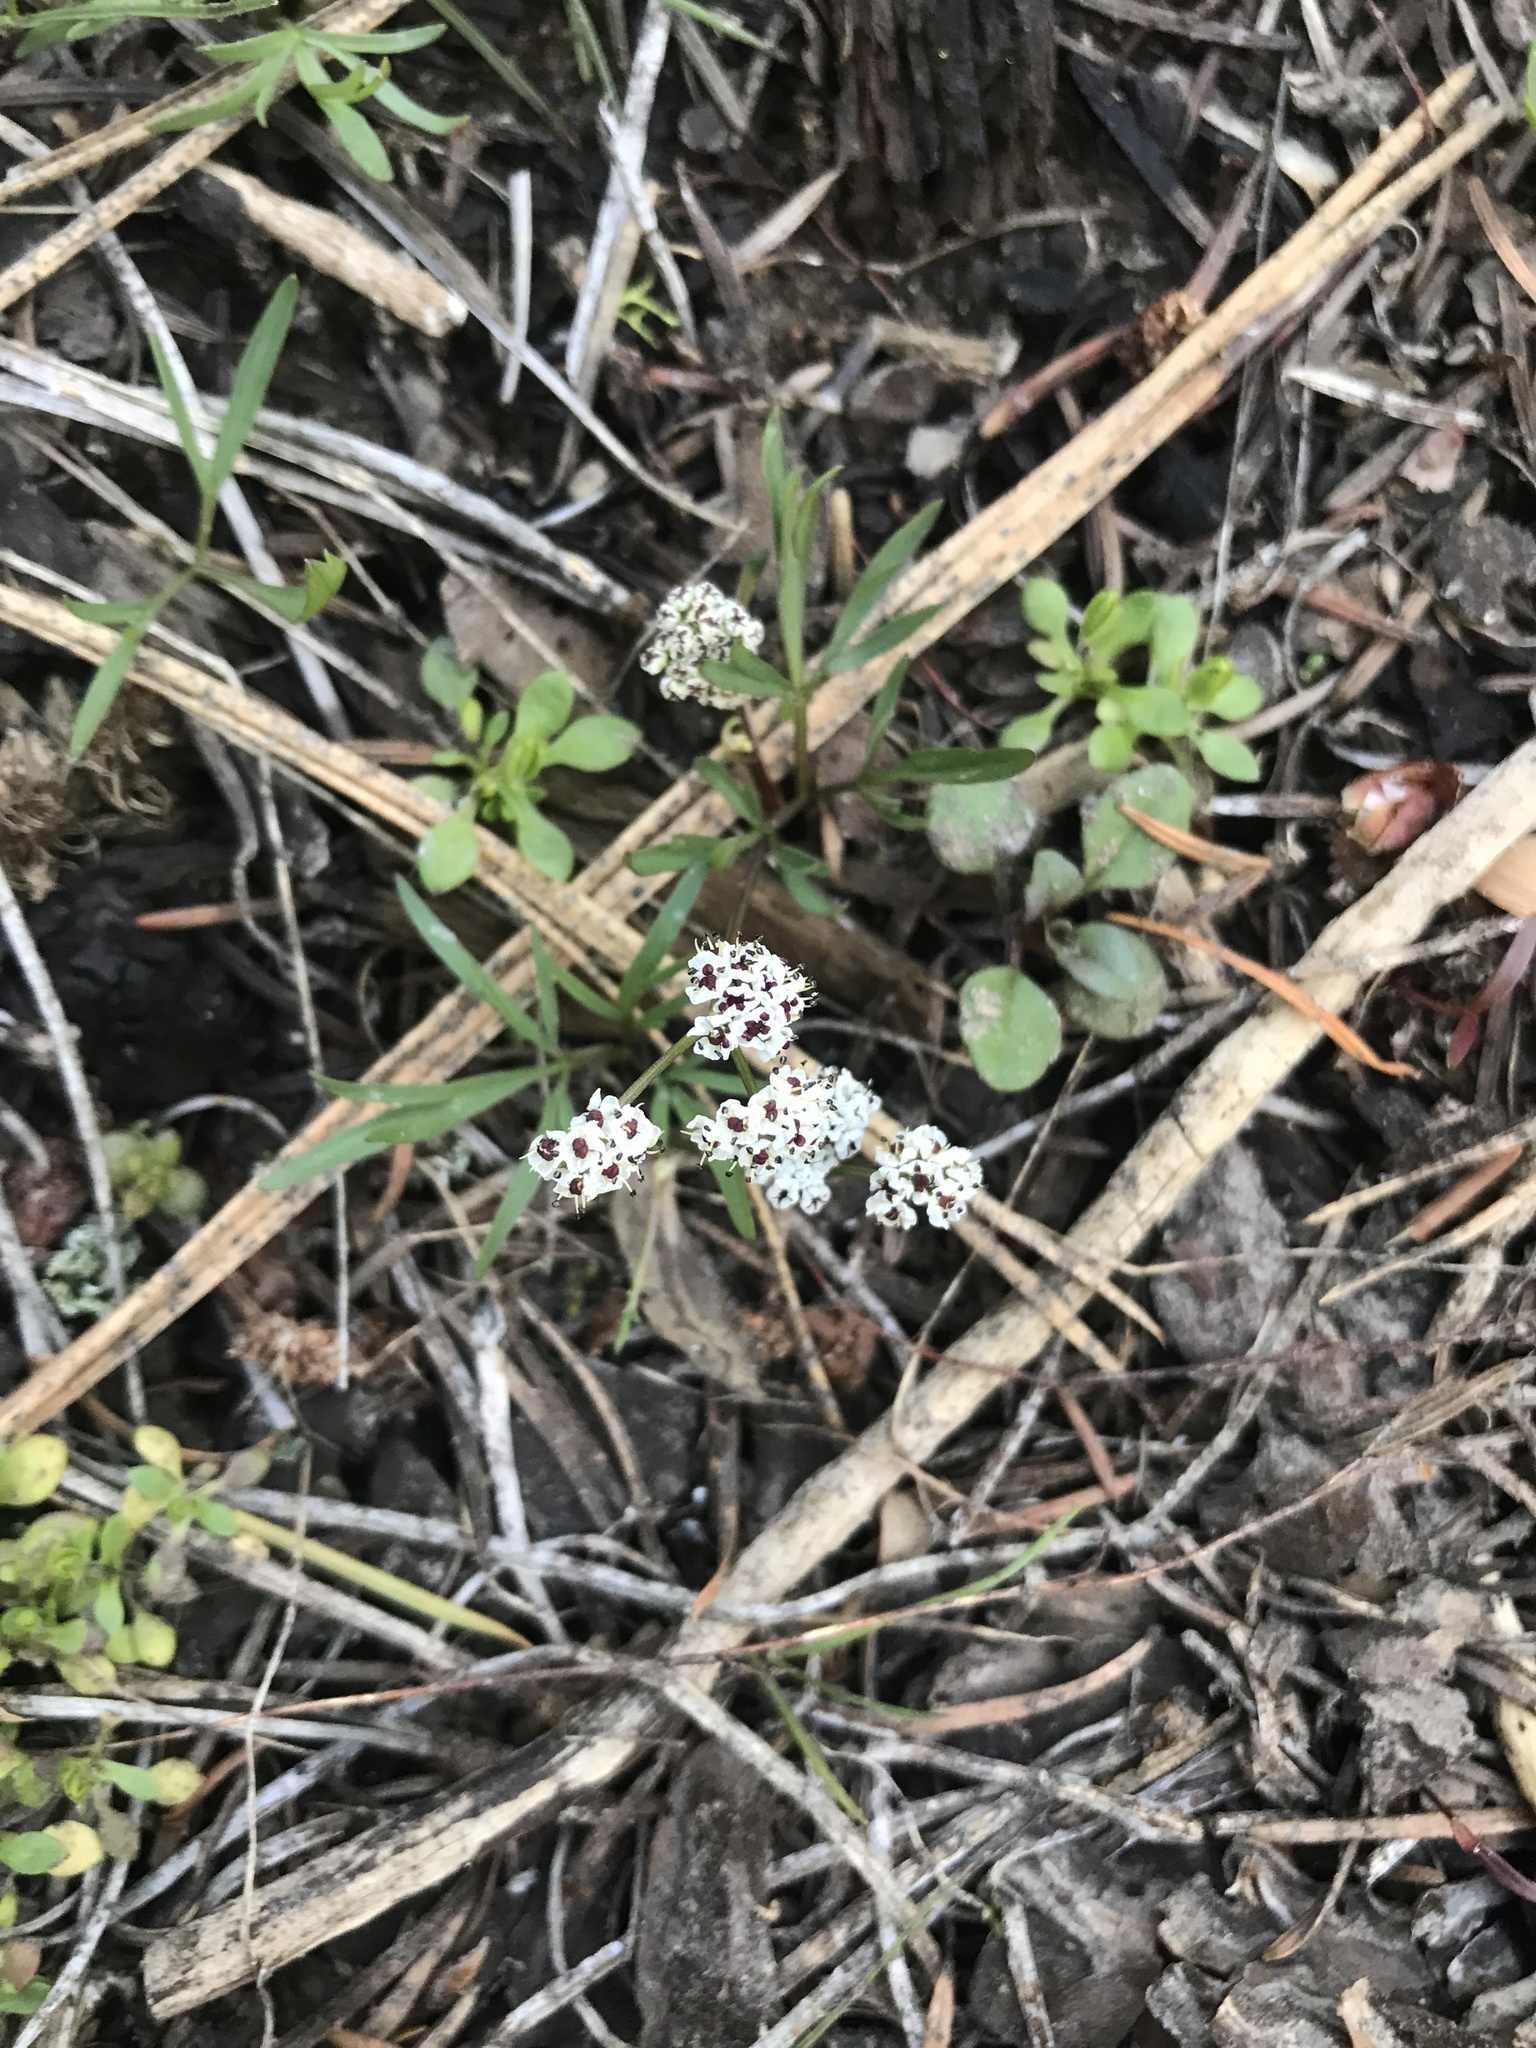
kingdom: Plantae
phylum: Tracheophyta
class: Magnoliopsida
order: Apiales
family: Apiaceae
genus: Lomatium
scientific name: Lomatium linearifolium
